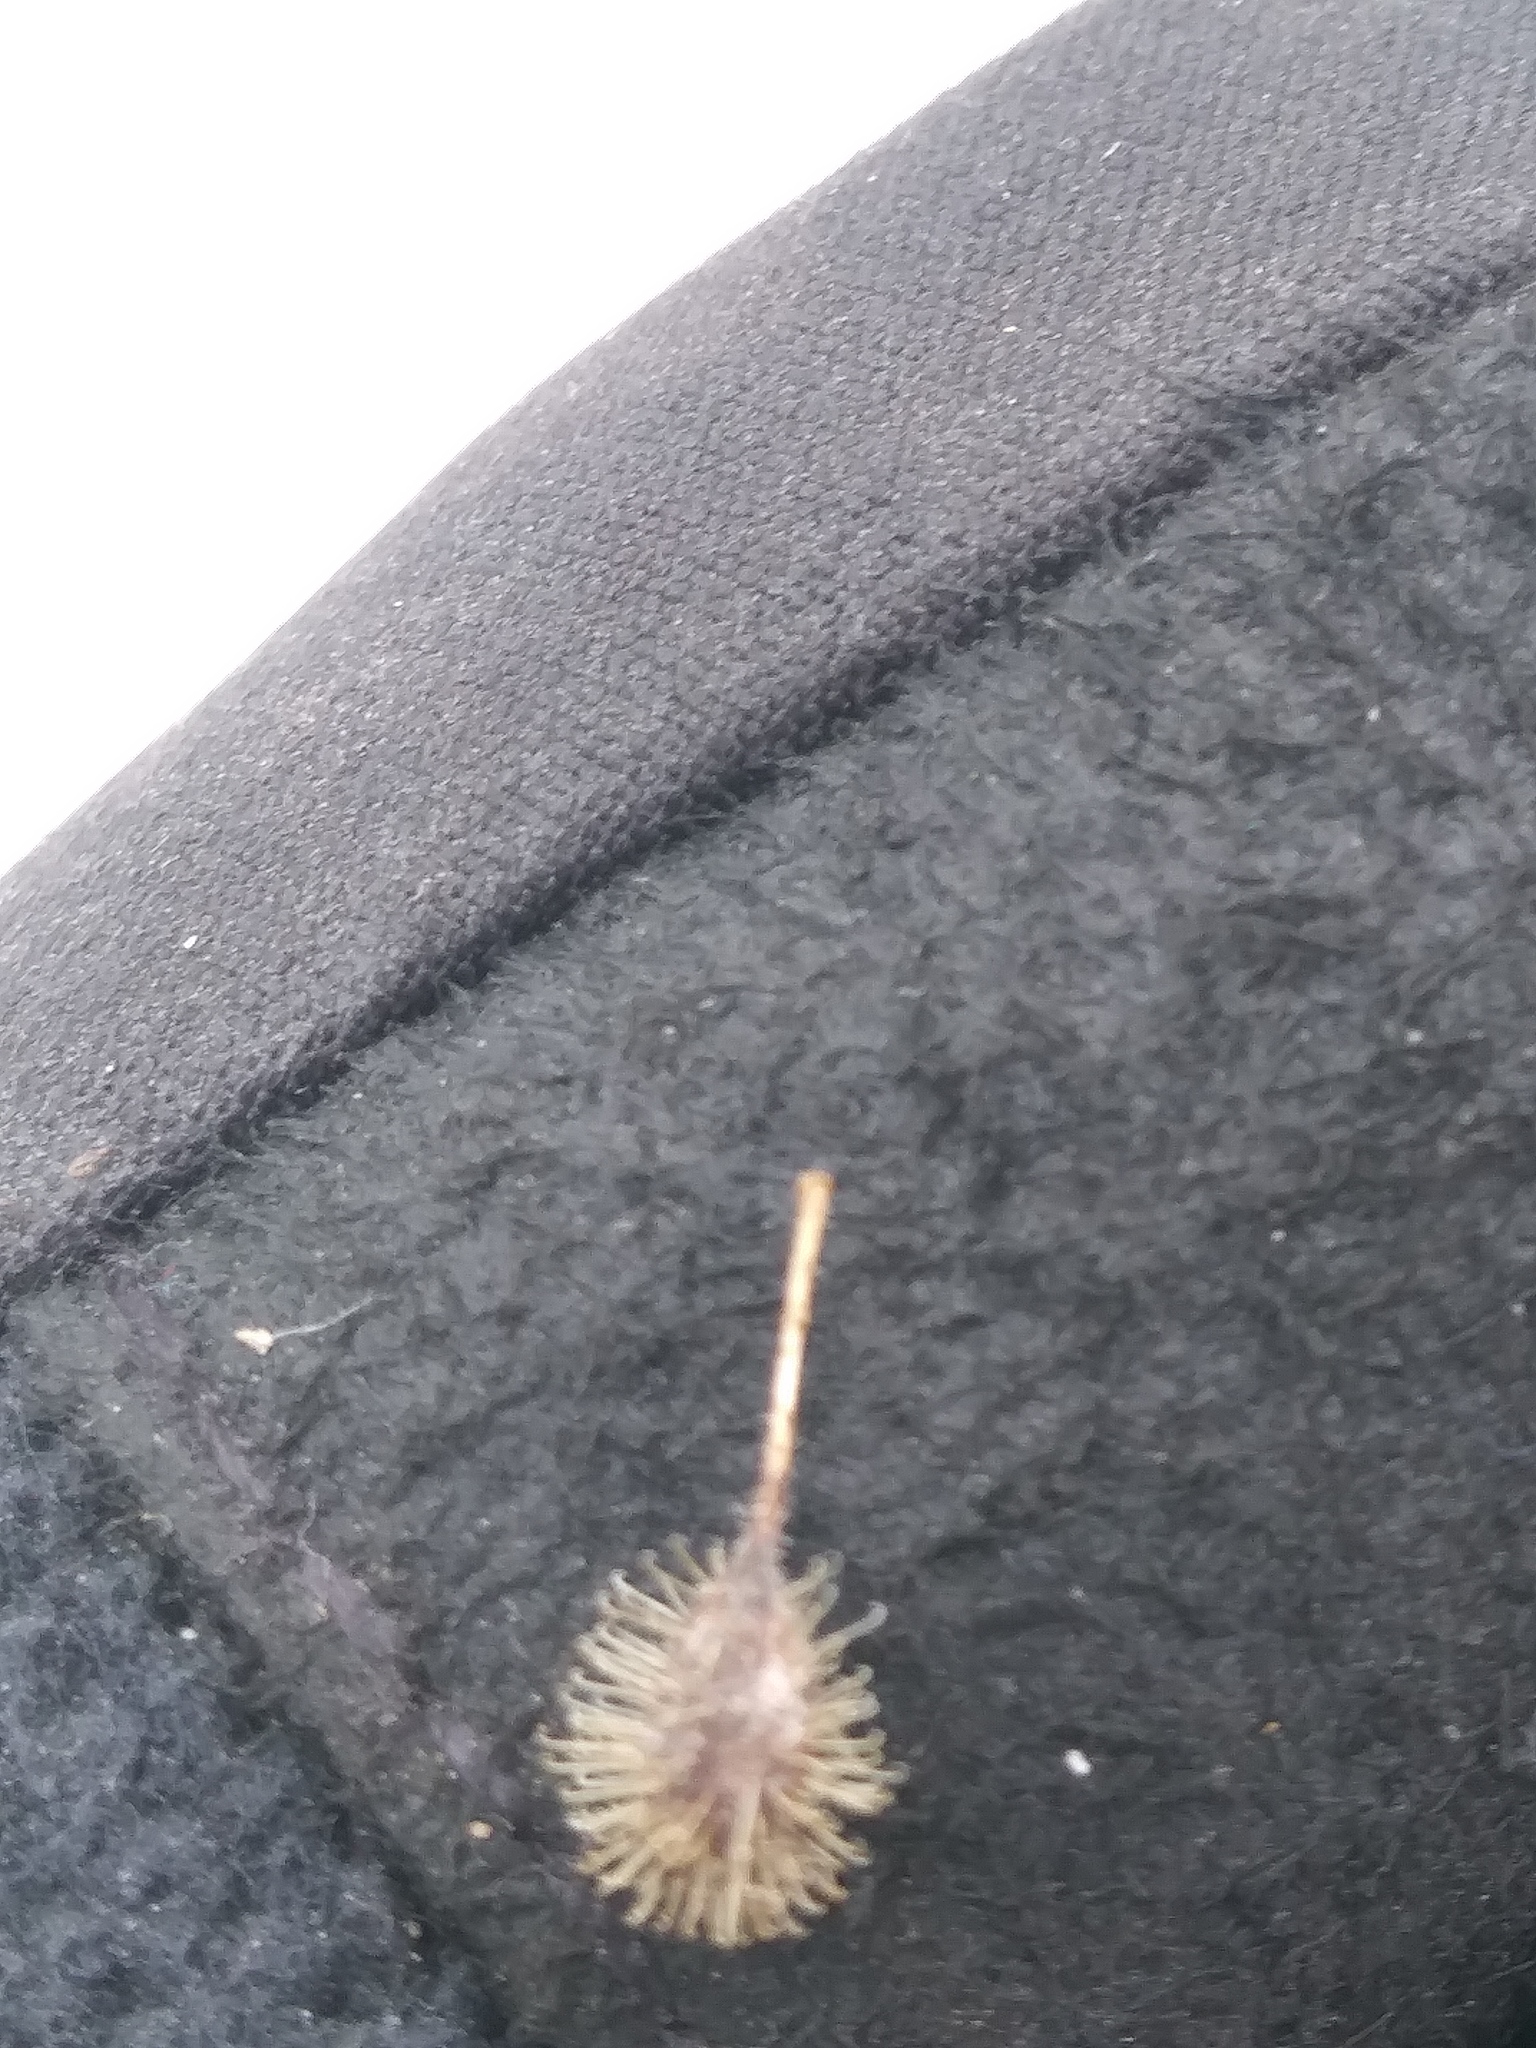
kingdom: Plantae
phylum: Tracheophyta
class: Magnoliopsida
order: Myrtales
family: Onagraceae
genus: Circaea
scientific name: Circaea canadensis
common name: Broad-leaved enchanter's nightshade
